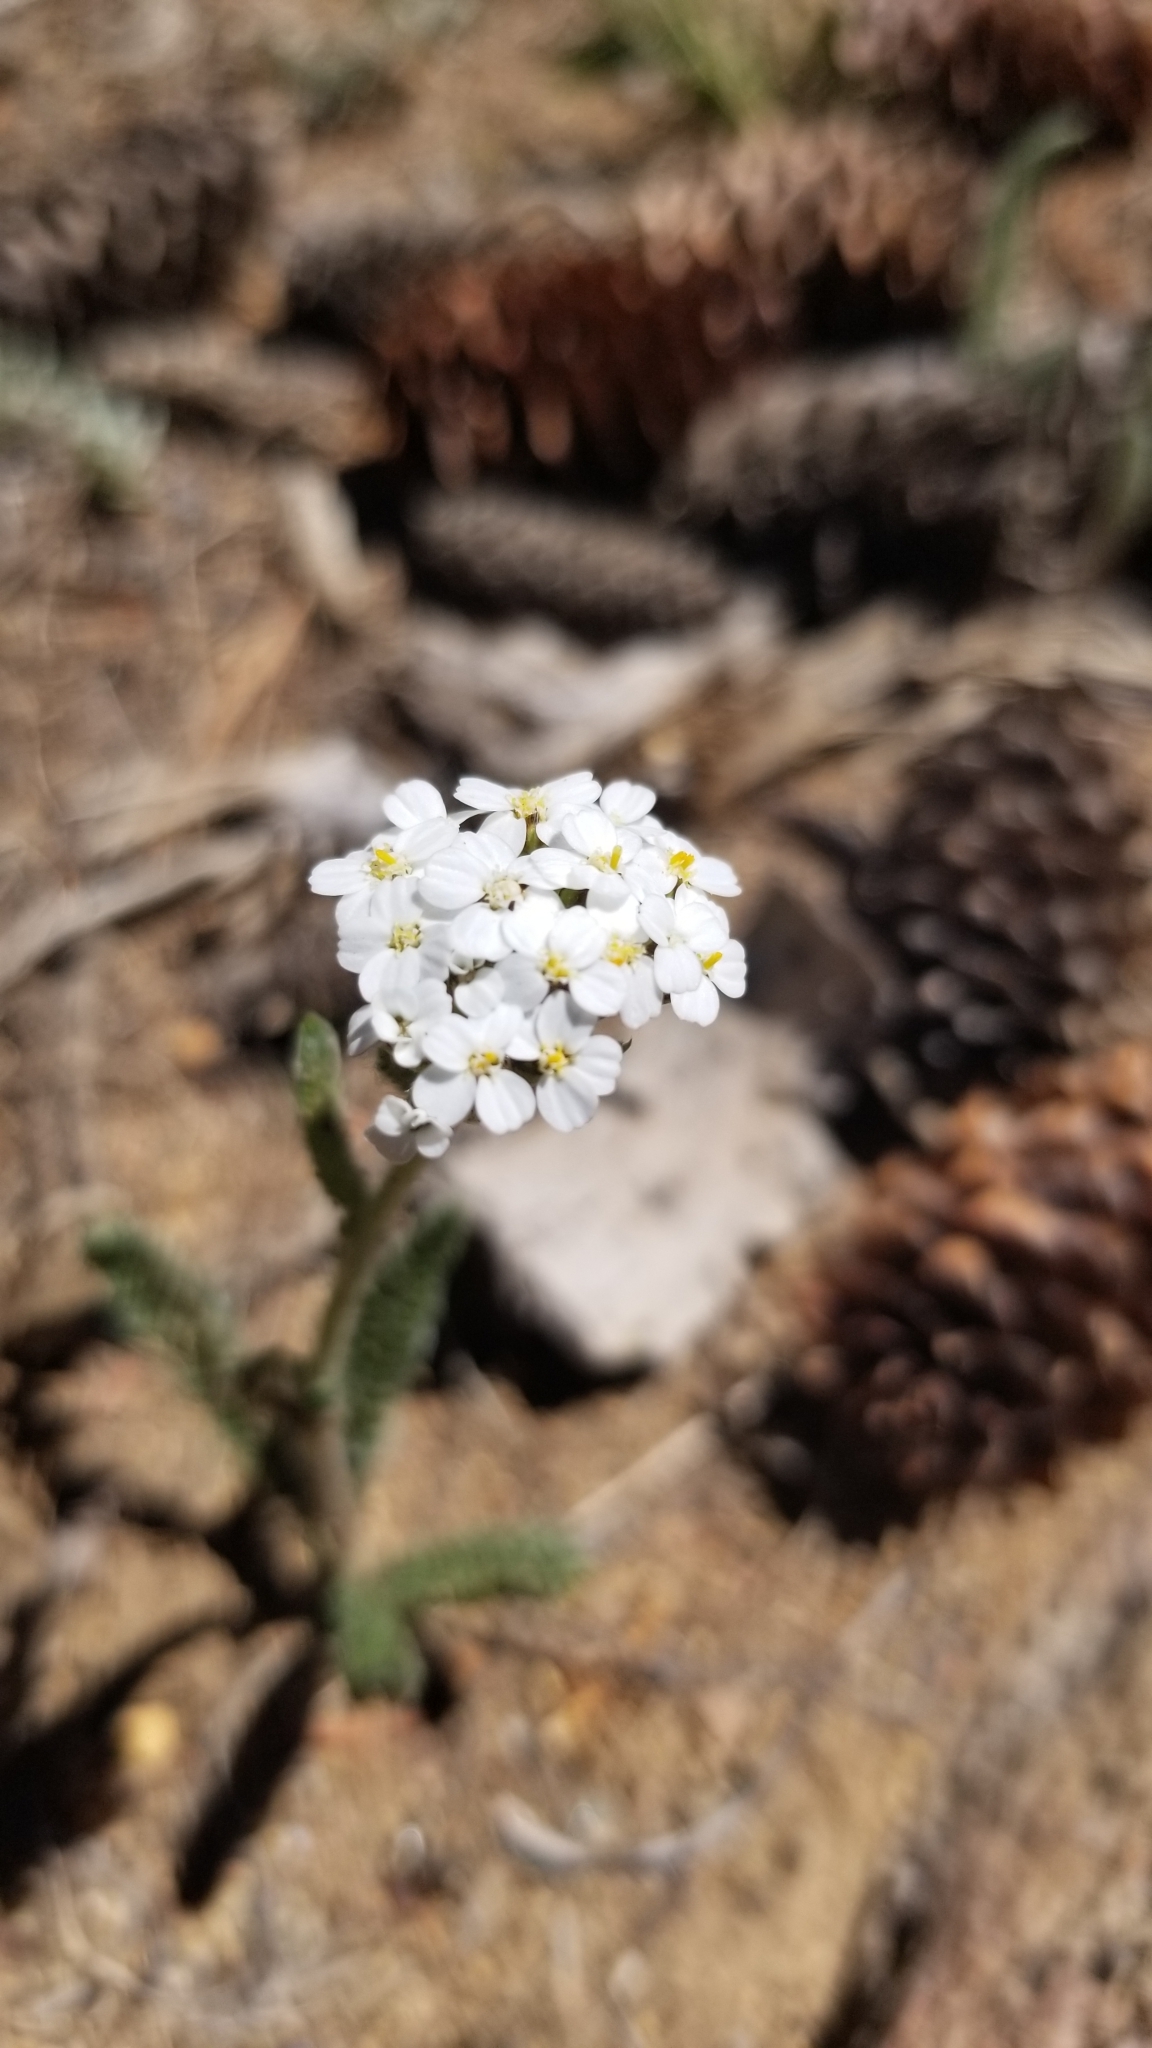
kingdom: Plantae
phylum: Tracheophyta
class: Magnoliopsida
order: Asterales
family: Asteraceae
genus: Achillea
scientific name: Achillea millefolium
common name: Yarrow
